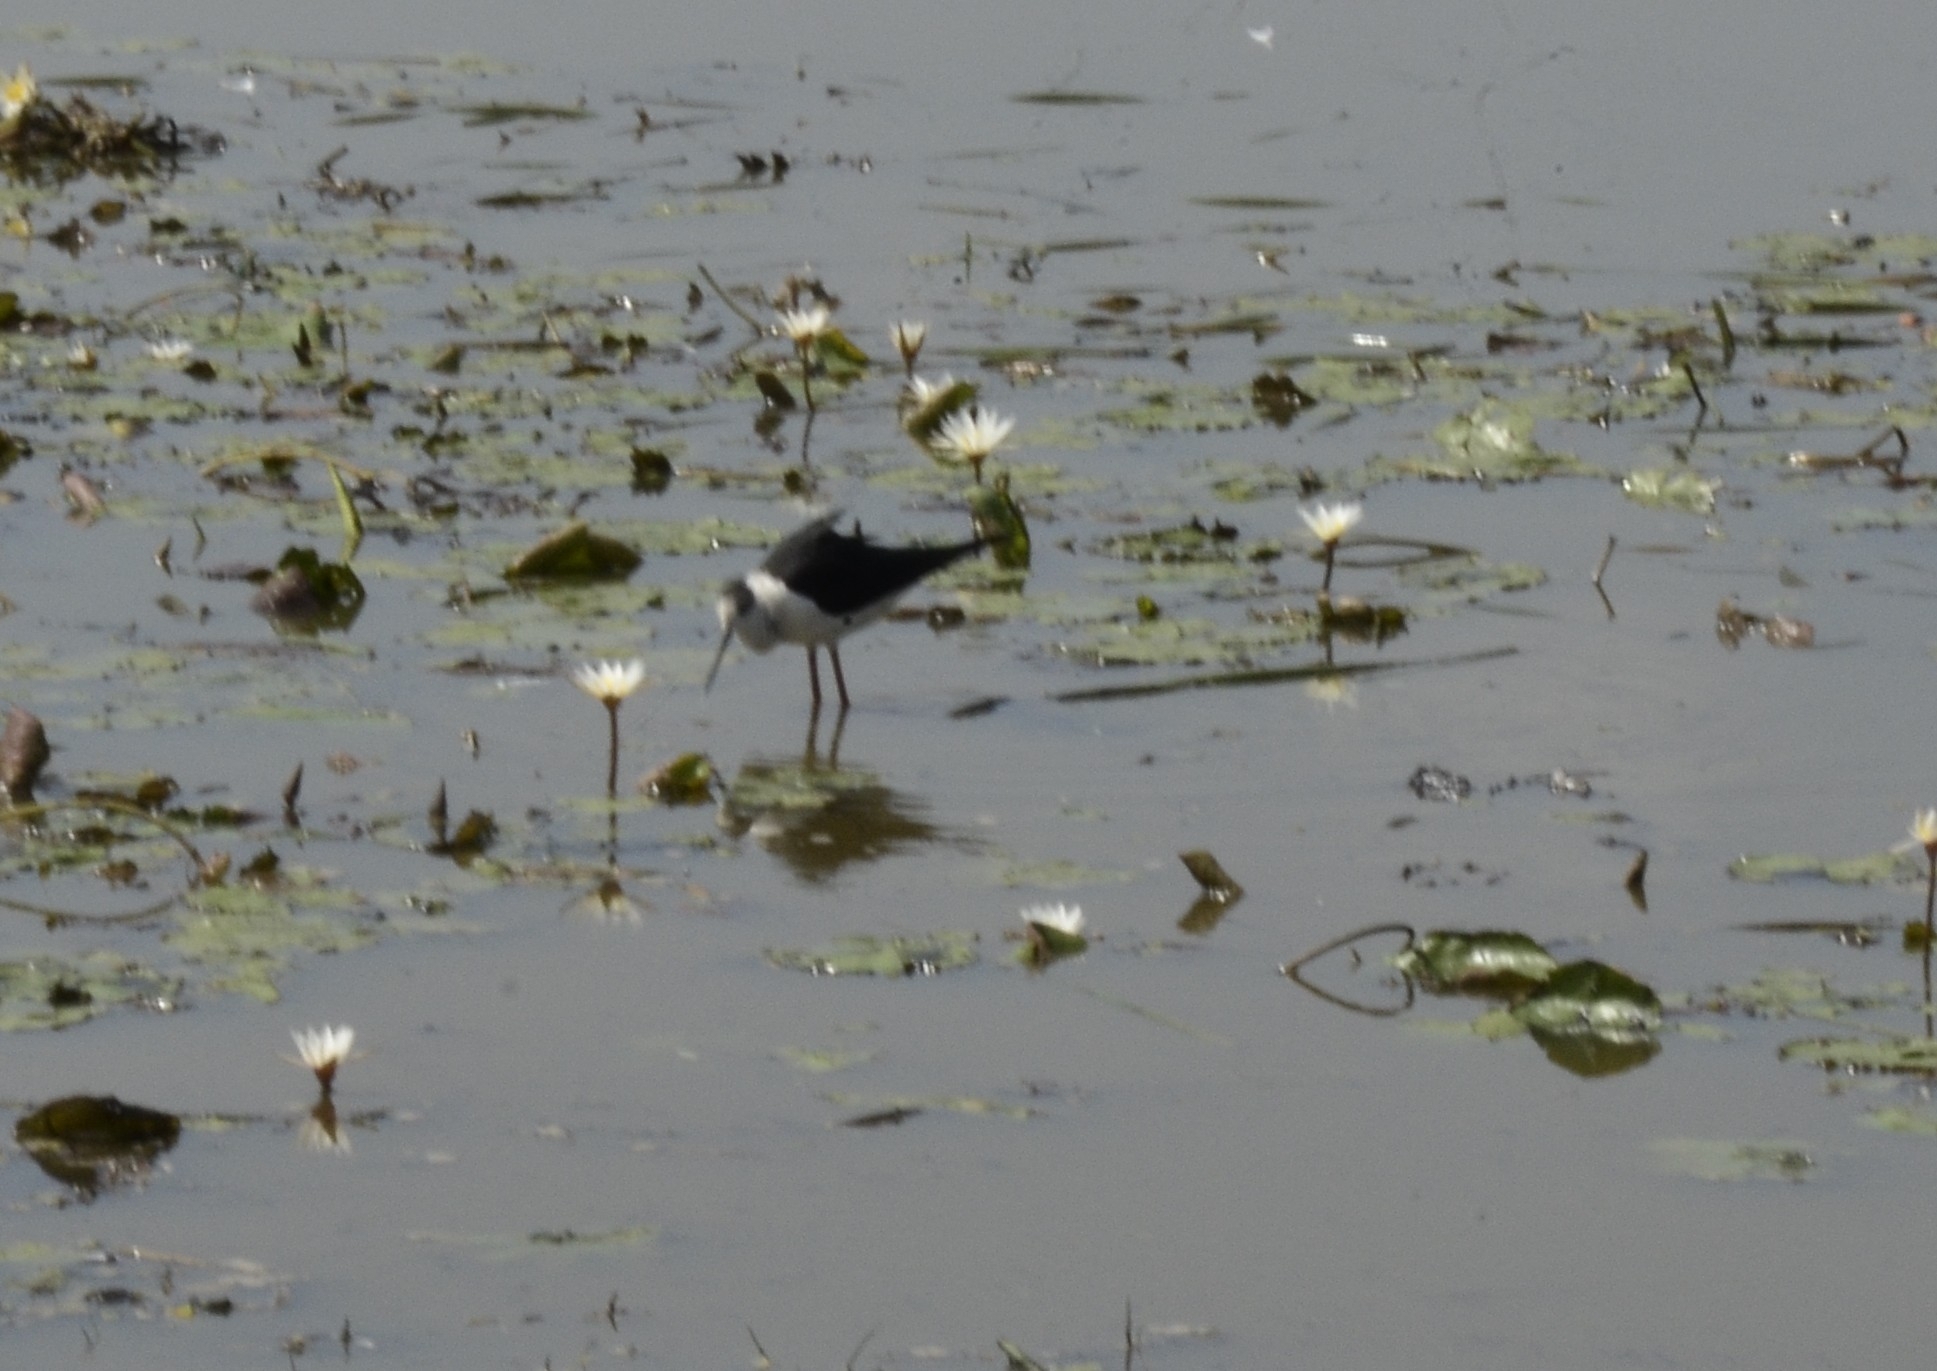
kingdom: Animalia
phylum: Chordata
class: Aves
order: Charadriiformes
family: Recurvirostridae
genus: Himantopus
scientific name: Himantopus himantopus
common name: Black-winged stilt
